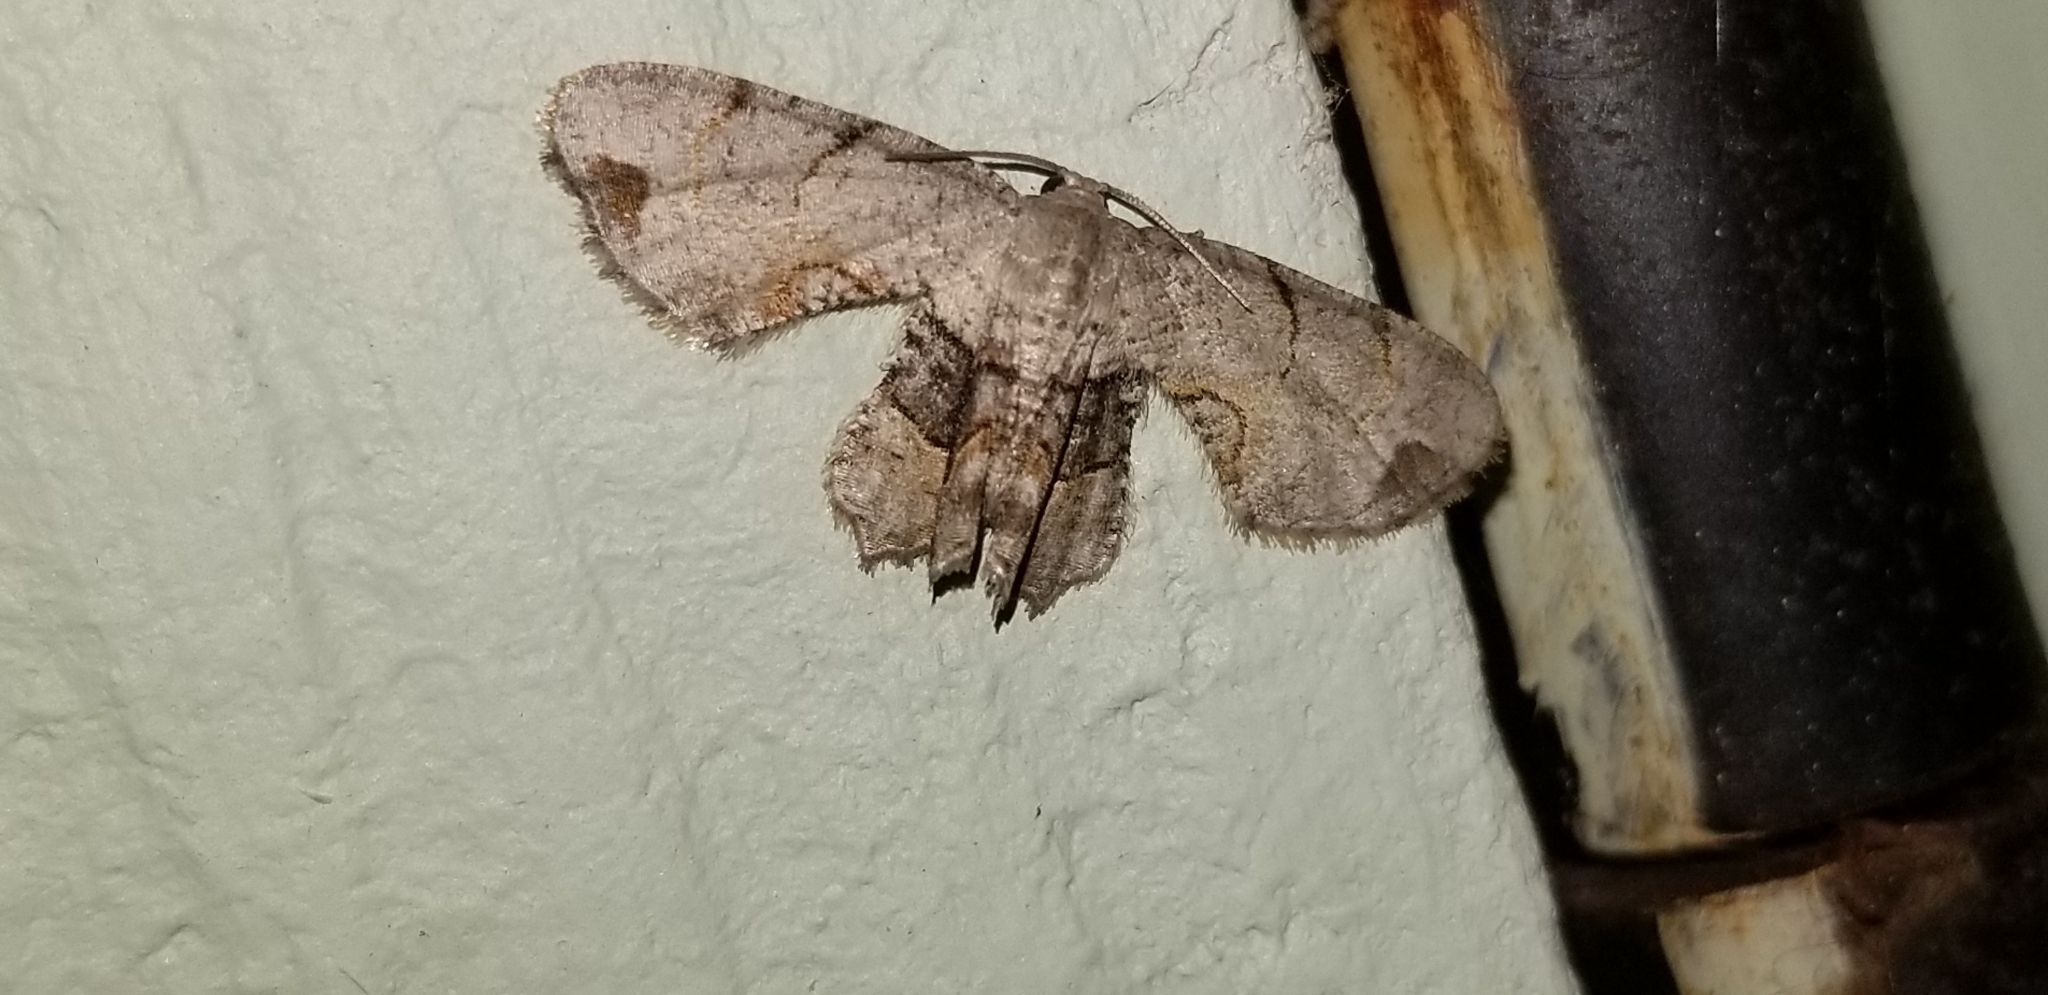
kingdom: Animalia
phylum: Arthropoda
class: Insecta
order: Lepidoptera
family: Uraniidae
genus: Epiplema
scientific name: Epiplema Callizzia amorata
